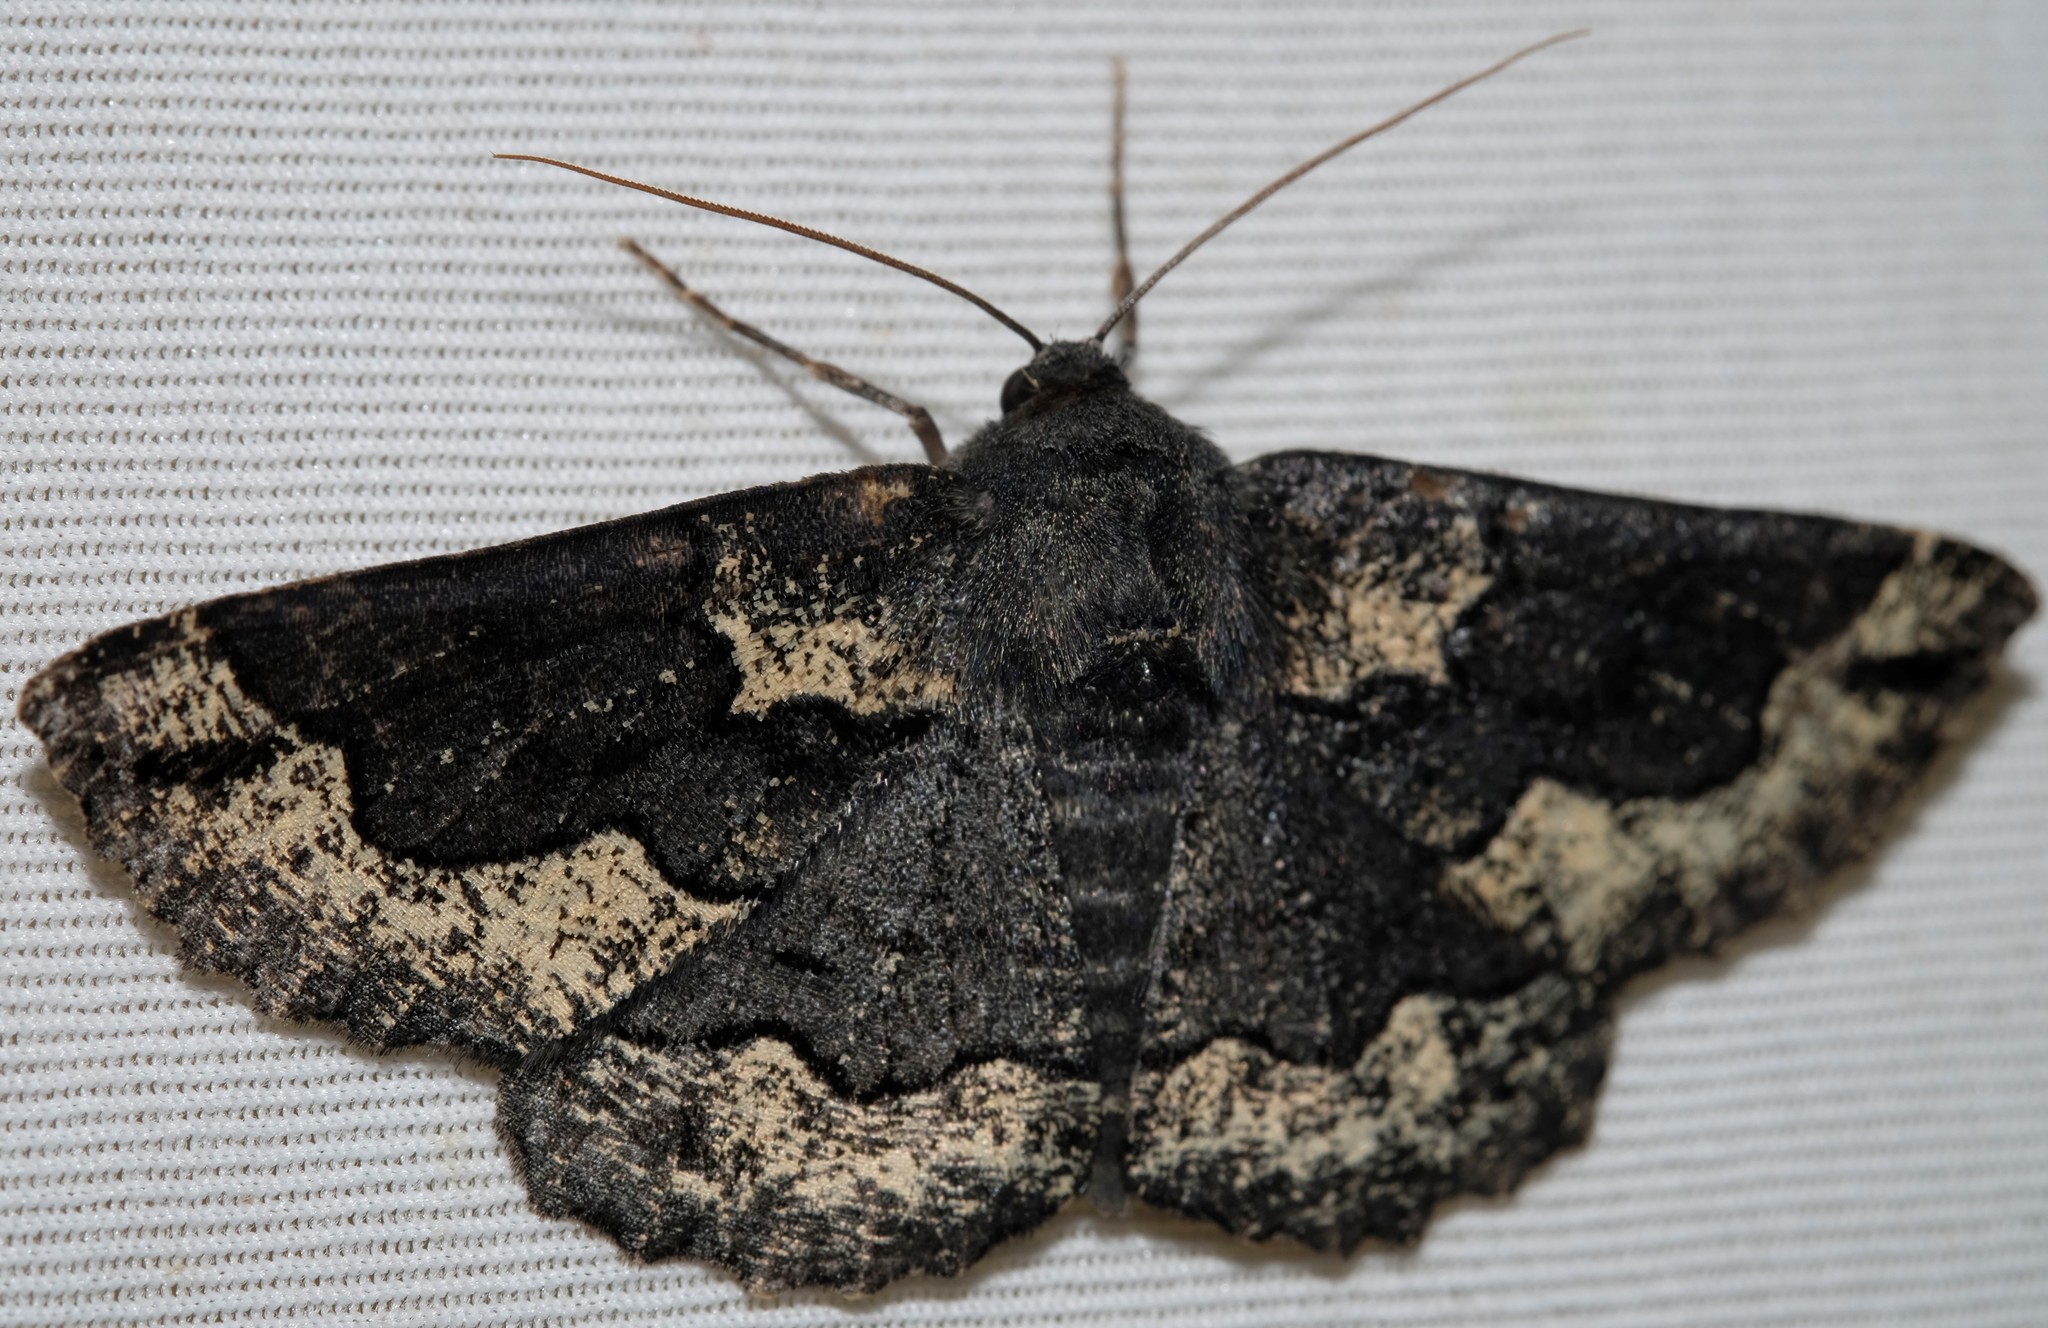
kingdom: Animalia
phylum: Arthropoda
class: Insecta
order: Lepidoptera
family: Geometridae
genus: Melanodes
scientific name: Melanodes anthracitaria
